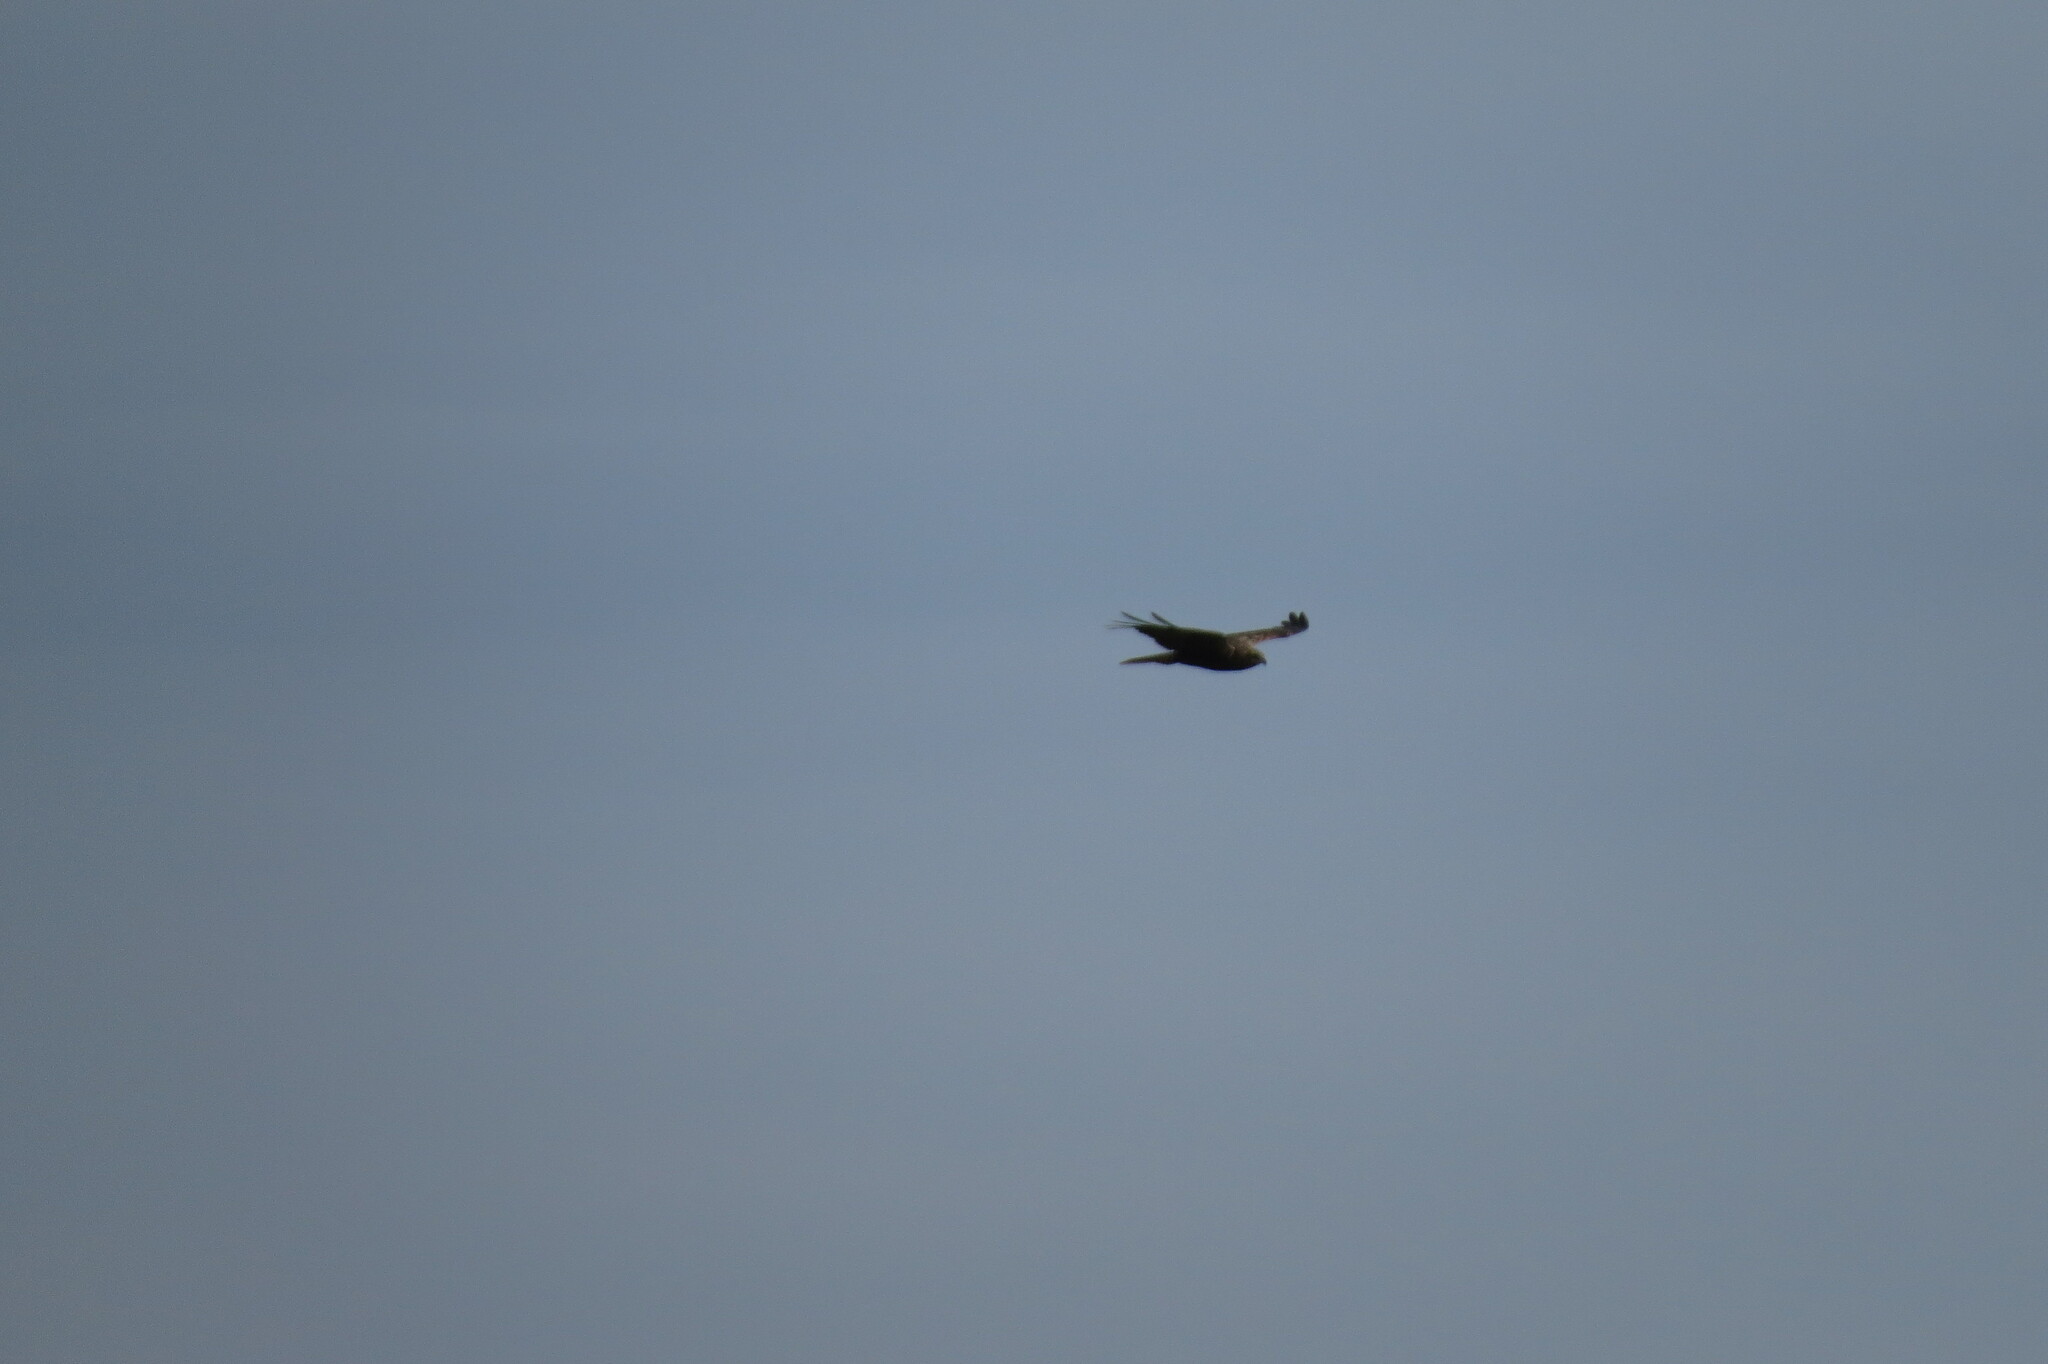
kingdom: Animalia
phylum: Chordata
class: Aves
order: Accipitriformes
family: Accipitridae
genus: Circus
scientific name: Circus aeruginosus
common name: Western marsh harrier
